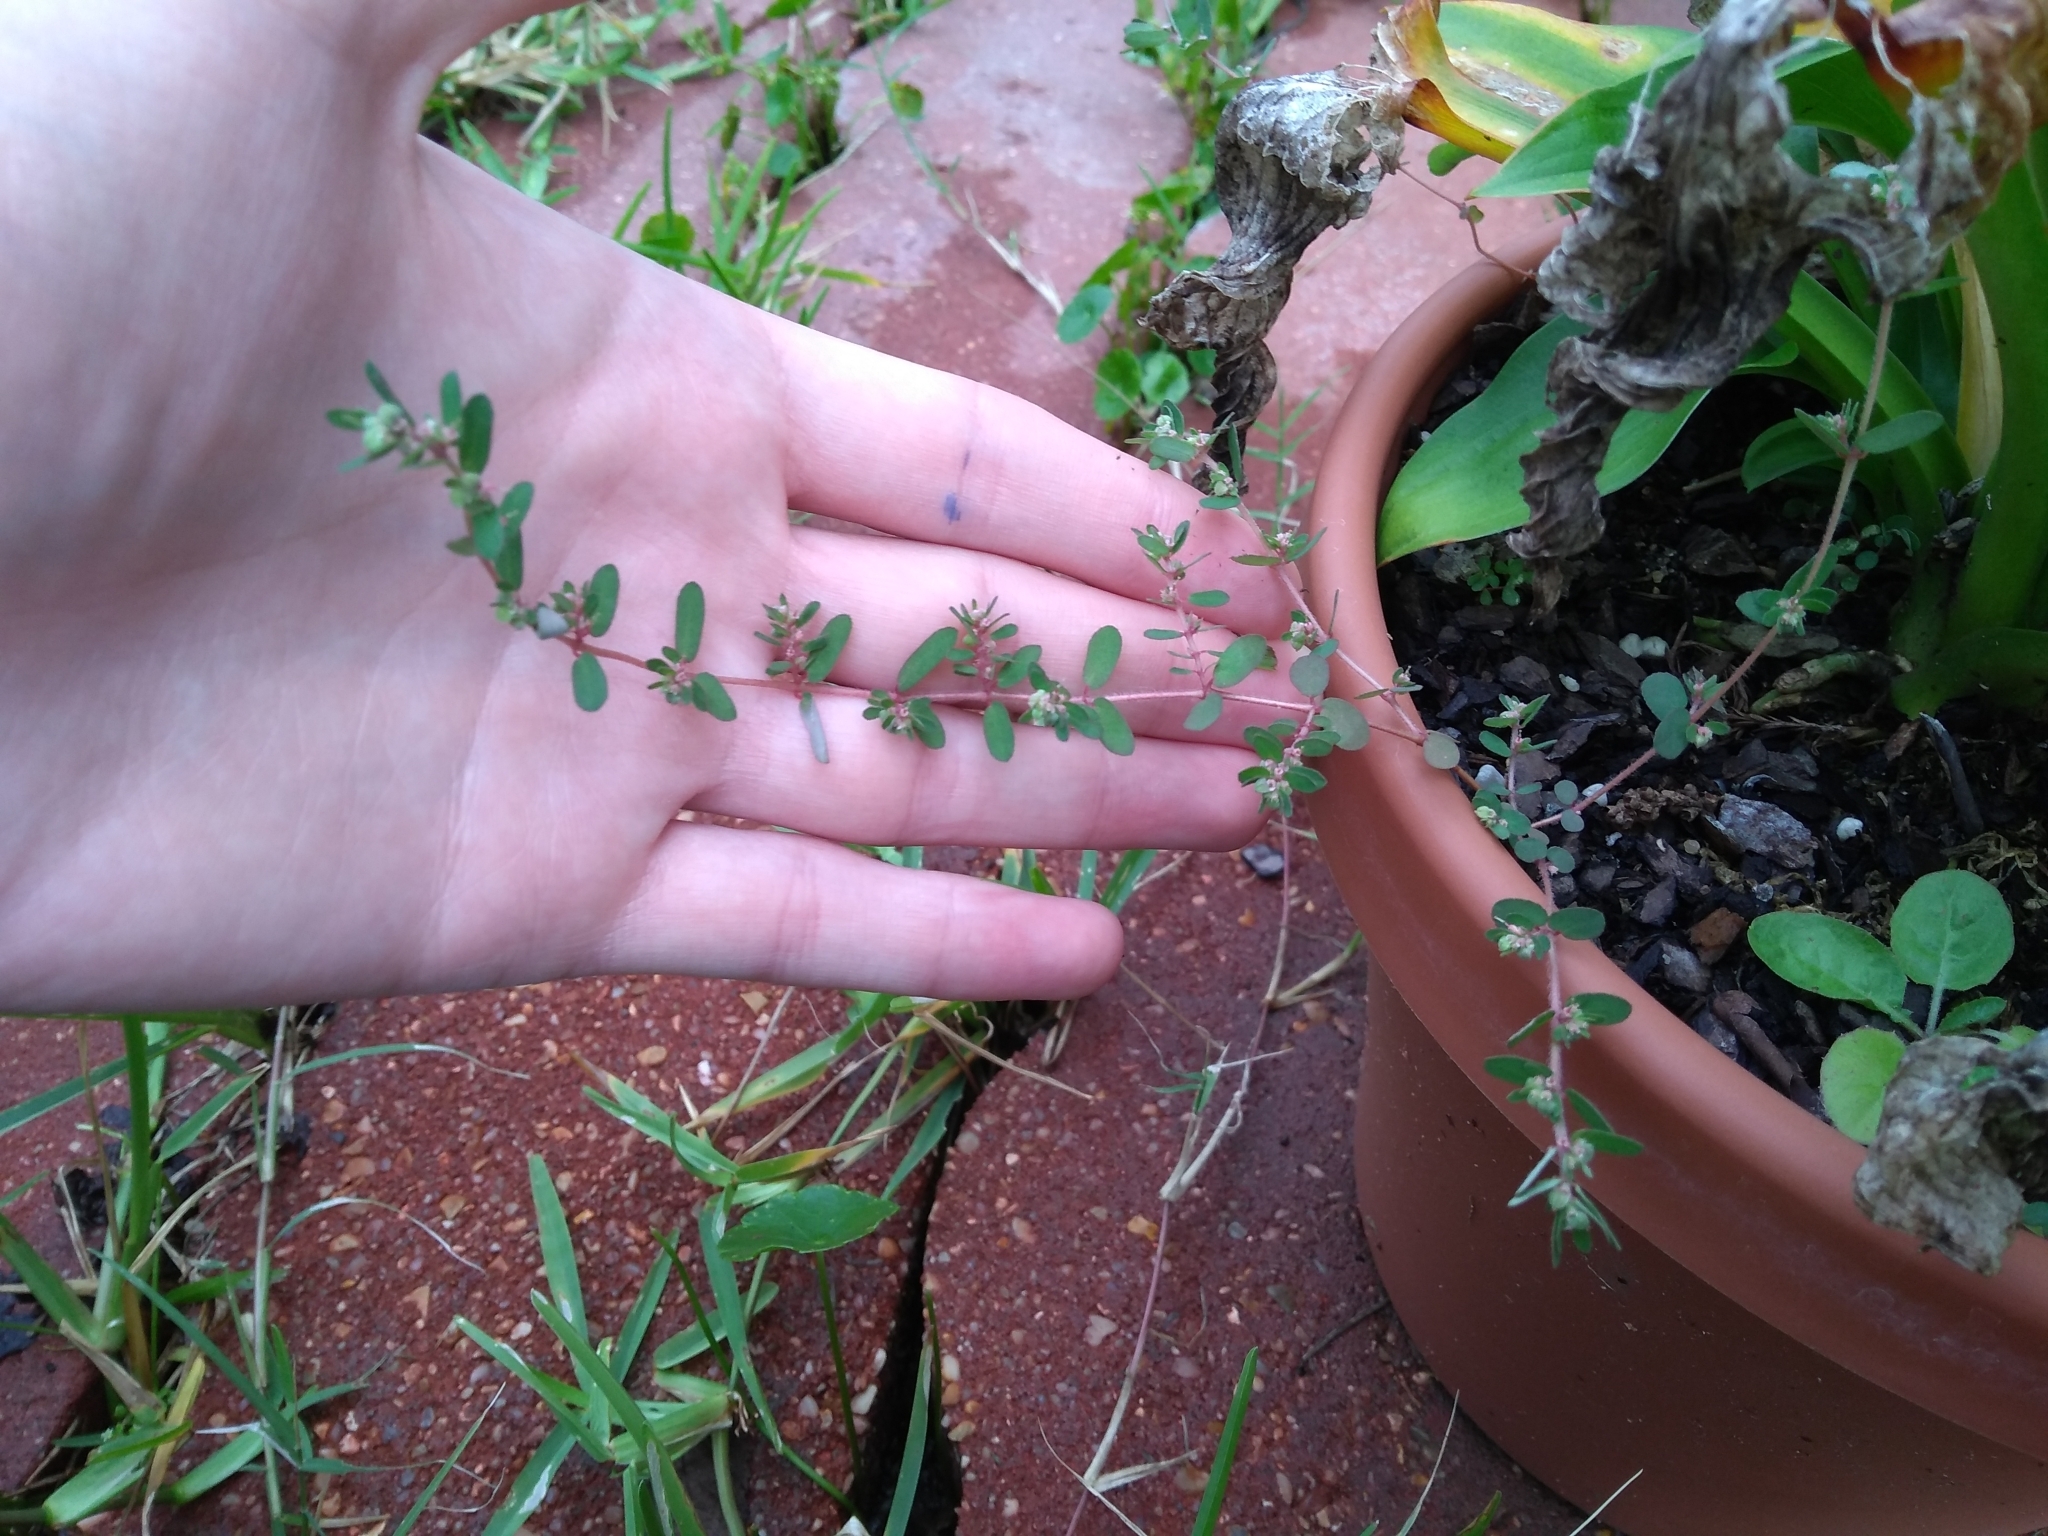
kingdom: Plantae
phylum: Tracheophyta
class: Magnoliopsida
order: Malpighiales
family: Euphorbiaceae
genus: Euphorbia
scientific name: Euphorbia maculata
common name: Spotted spurge
